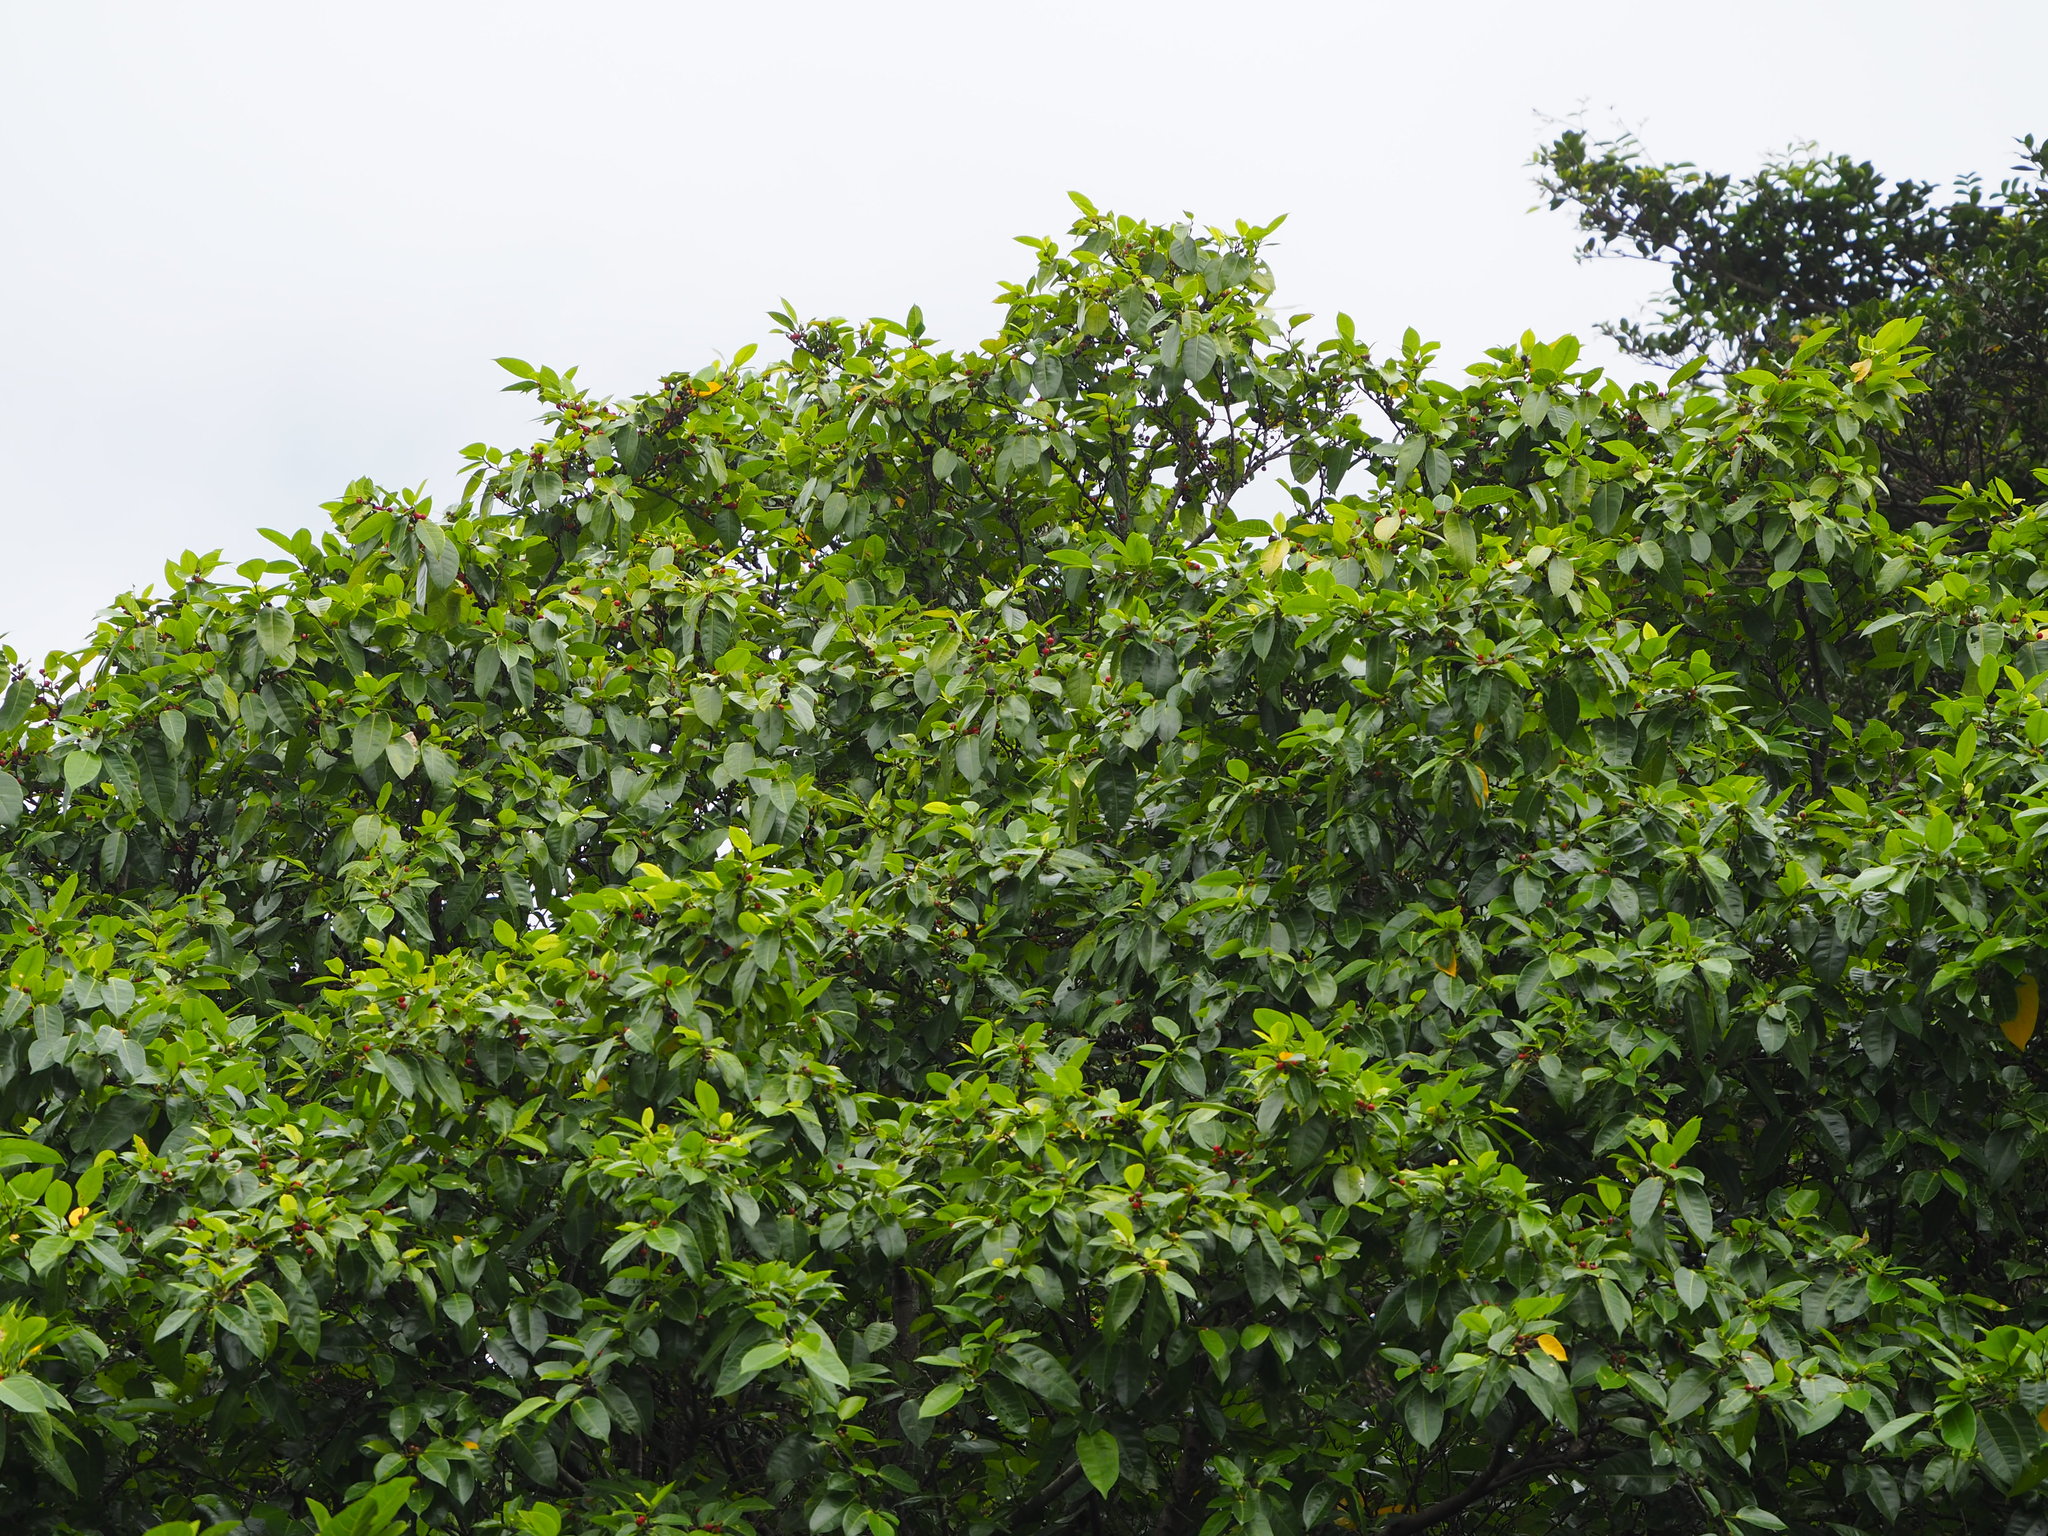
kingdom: Plantae
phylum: Tracheophyta
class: Magnoliopsida
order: Rosales
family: Moraceae
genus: Ficus
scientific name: Ficus virgata
